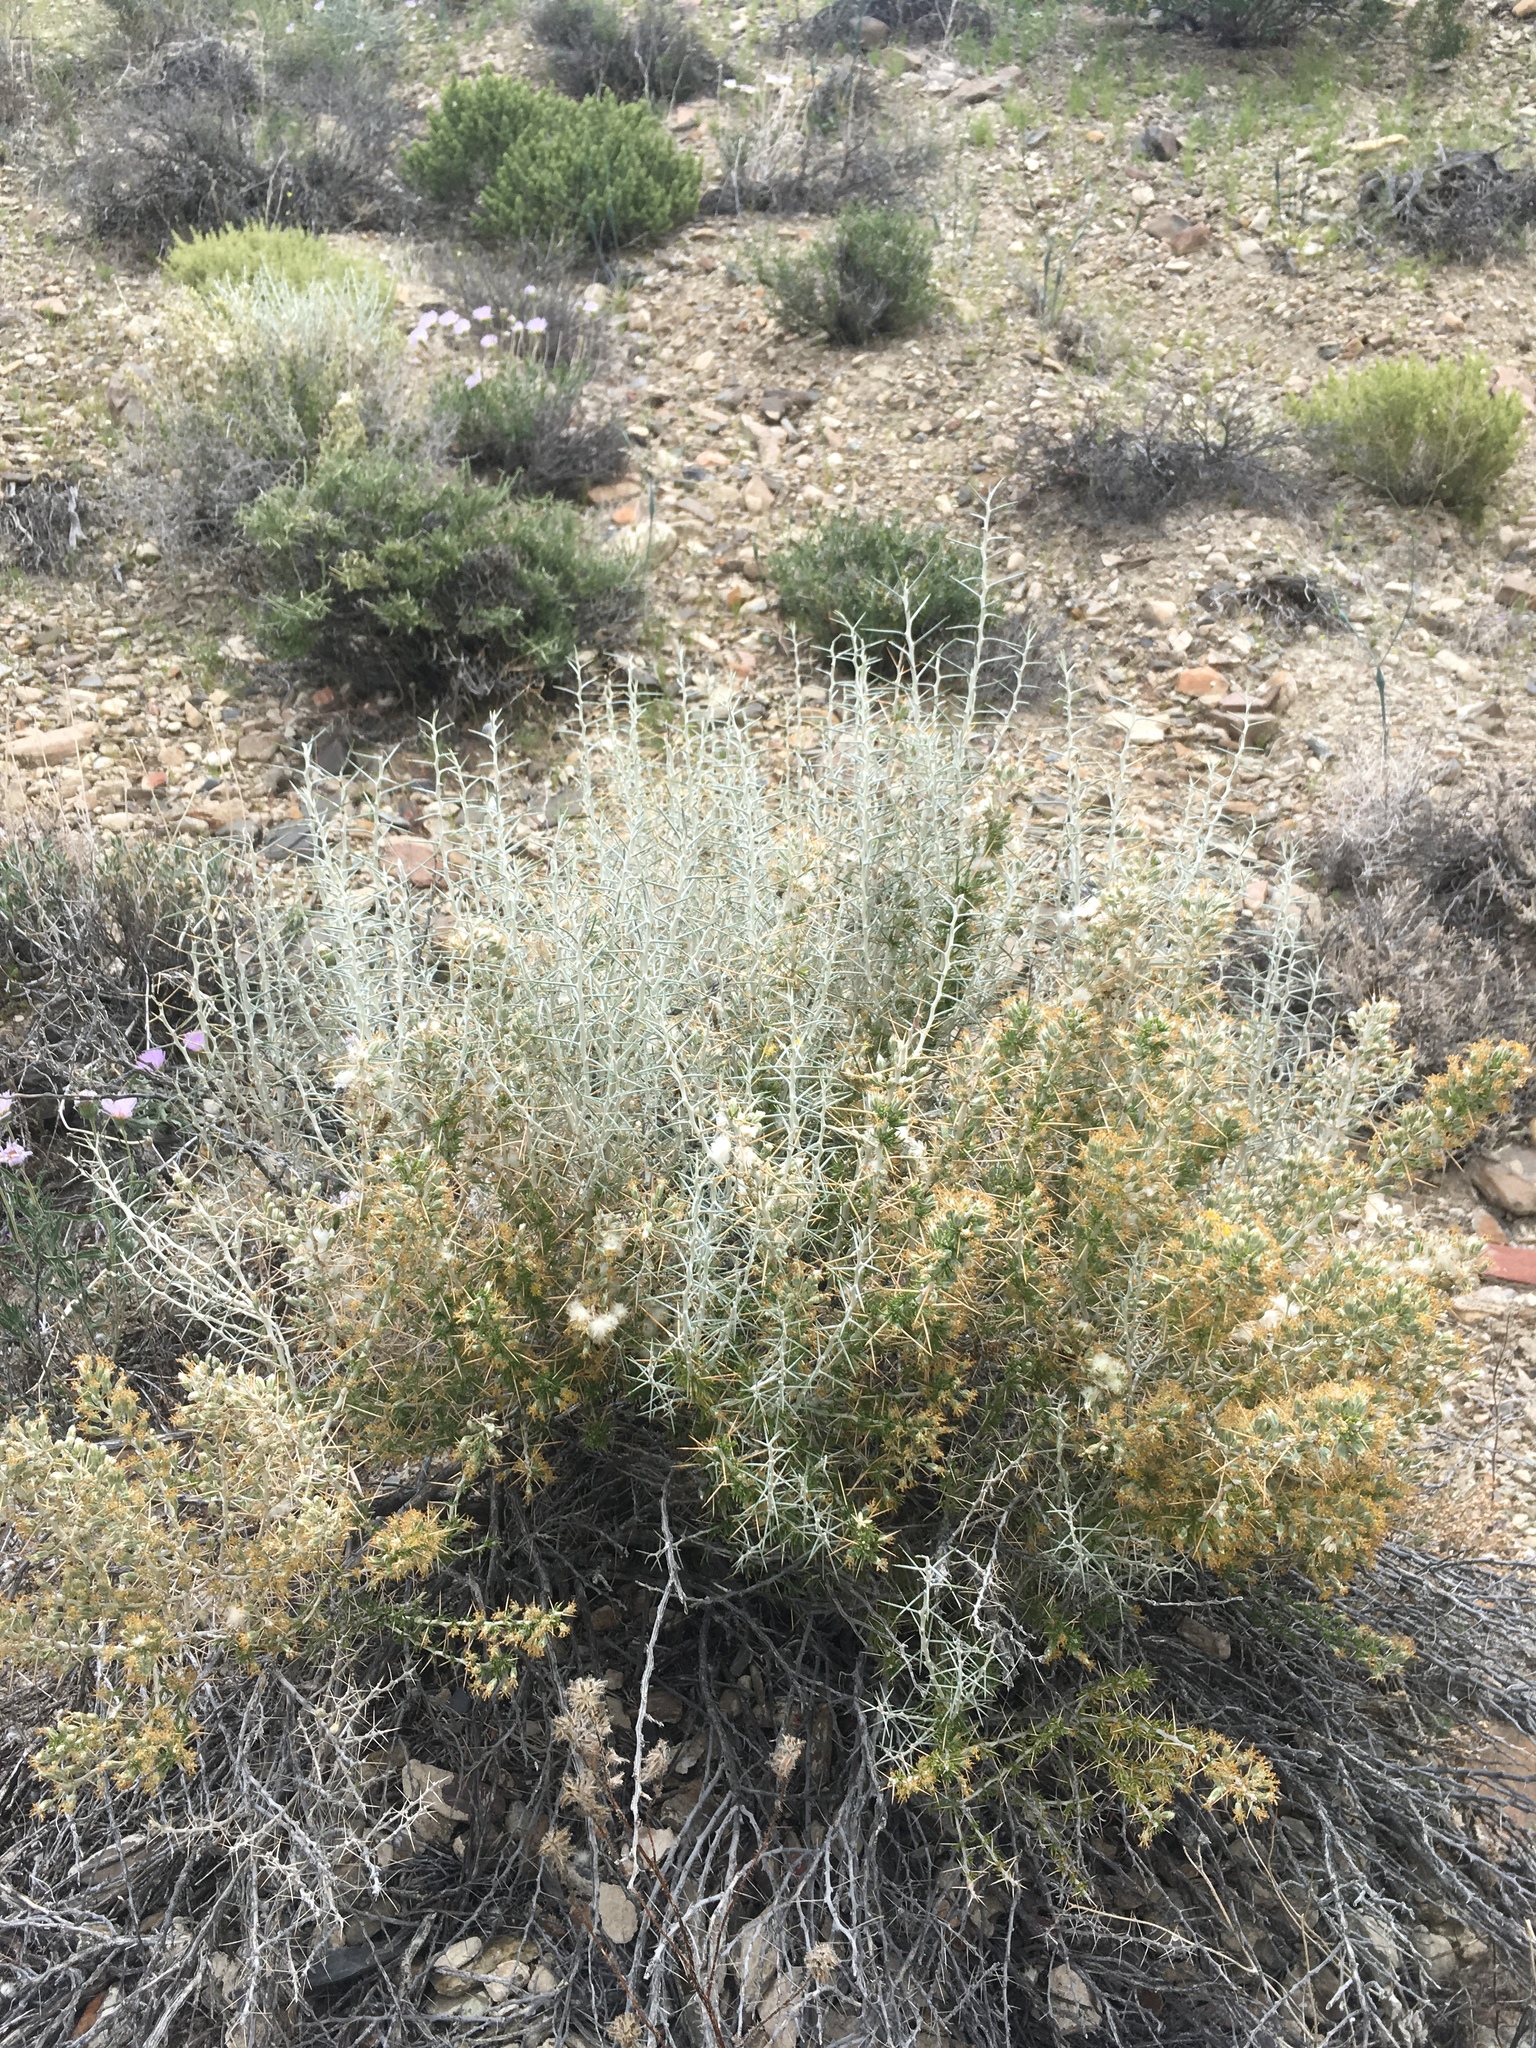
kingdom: Plantae
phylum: Tracheophyta
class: Magnoliopsida
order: Asterales
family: Asteraceae
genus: Tetradymia
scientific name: Tetradymia axillaris
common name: Long-spine horsebrush
